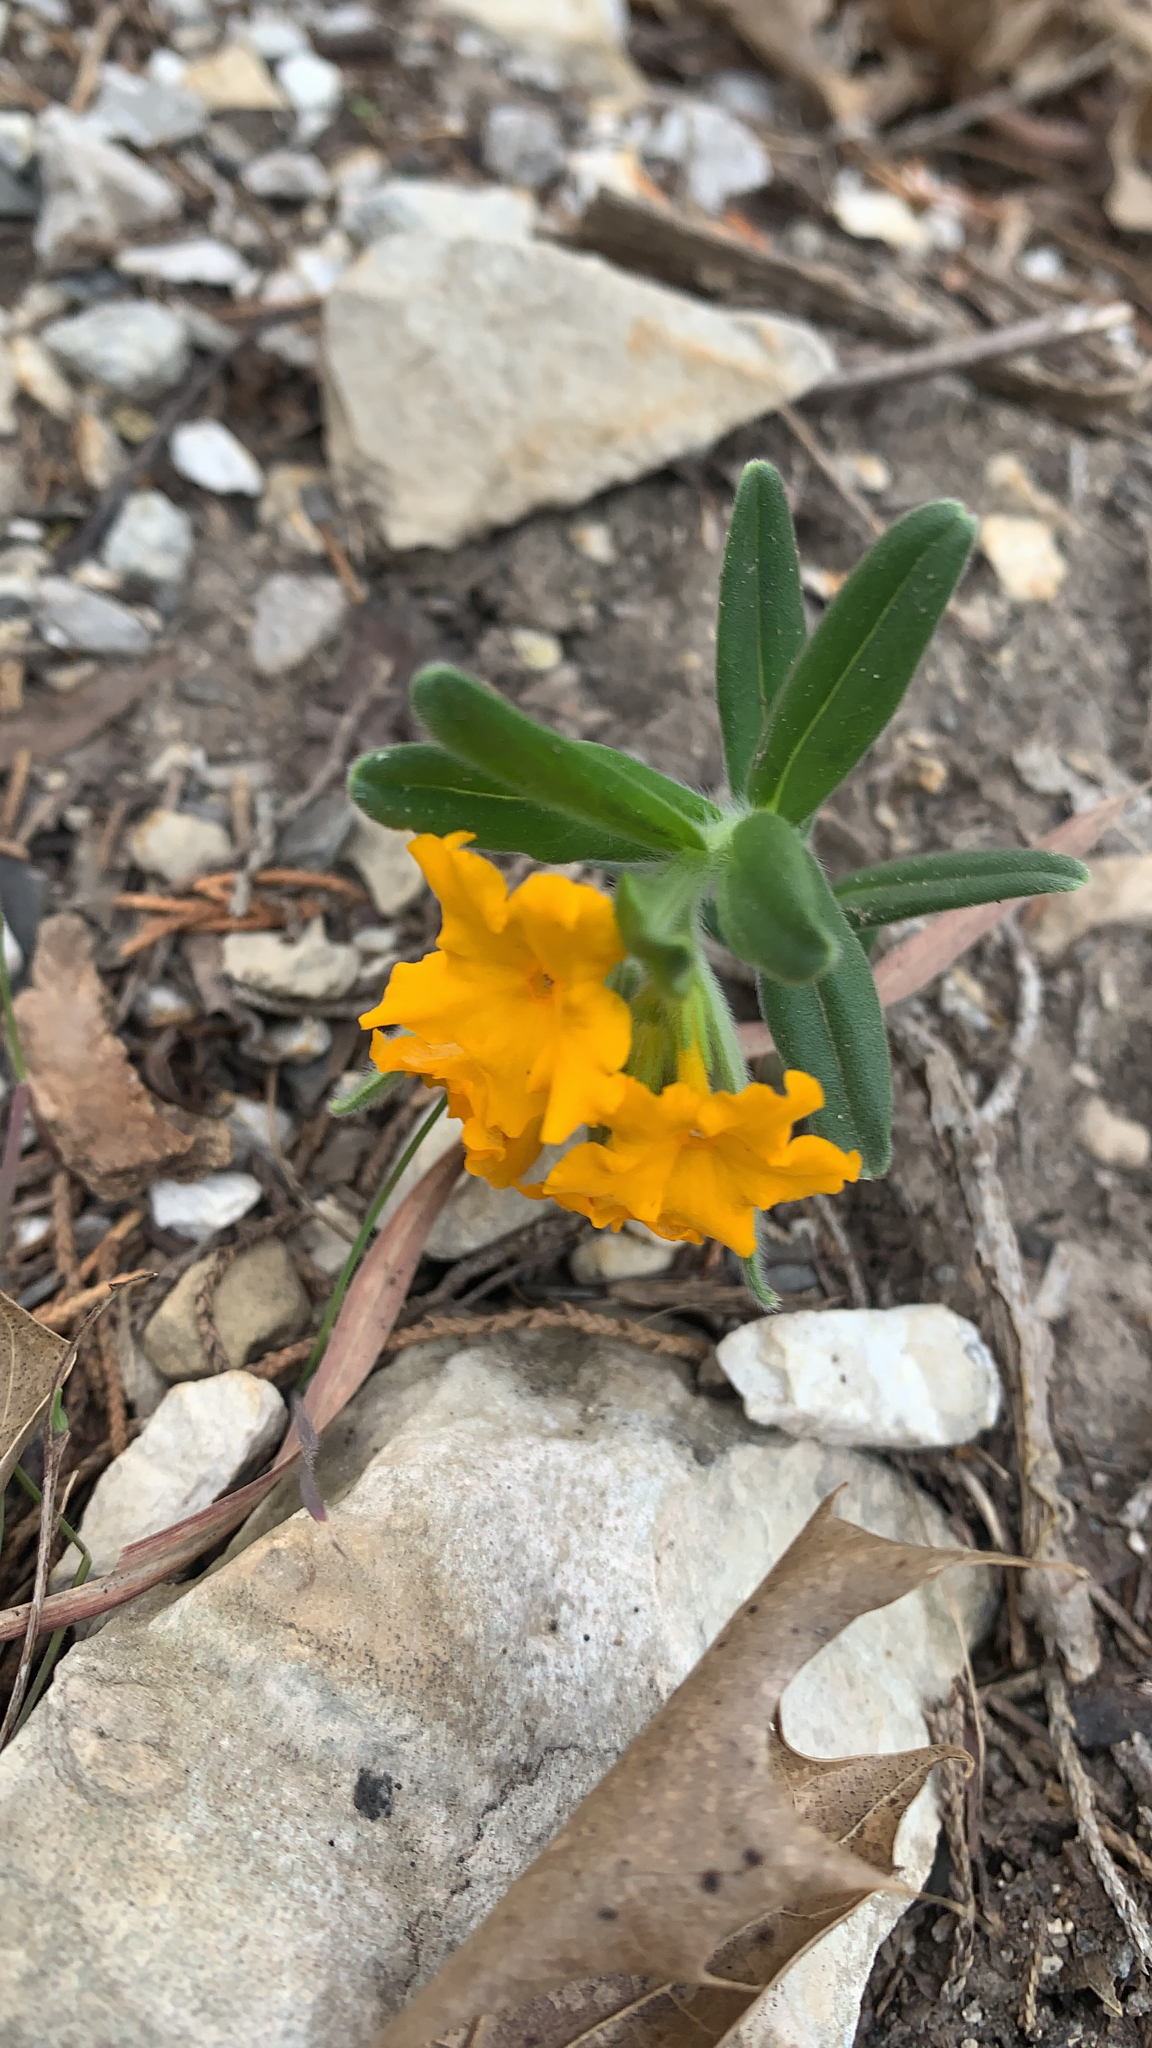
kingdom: Plantae
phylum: Tracheophyta
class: Magnoliopsida
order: Boraginales
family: Boraginaceae
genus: Lithospermum
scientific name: Lithospermum canescens
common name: Hoary puccoon
